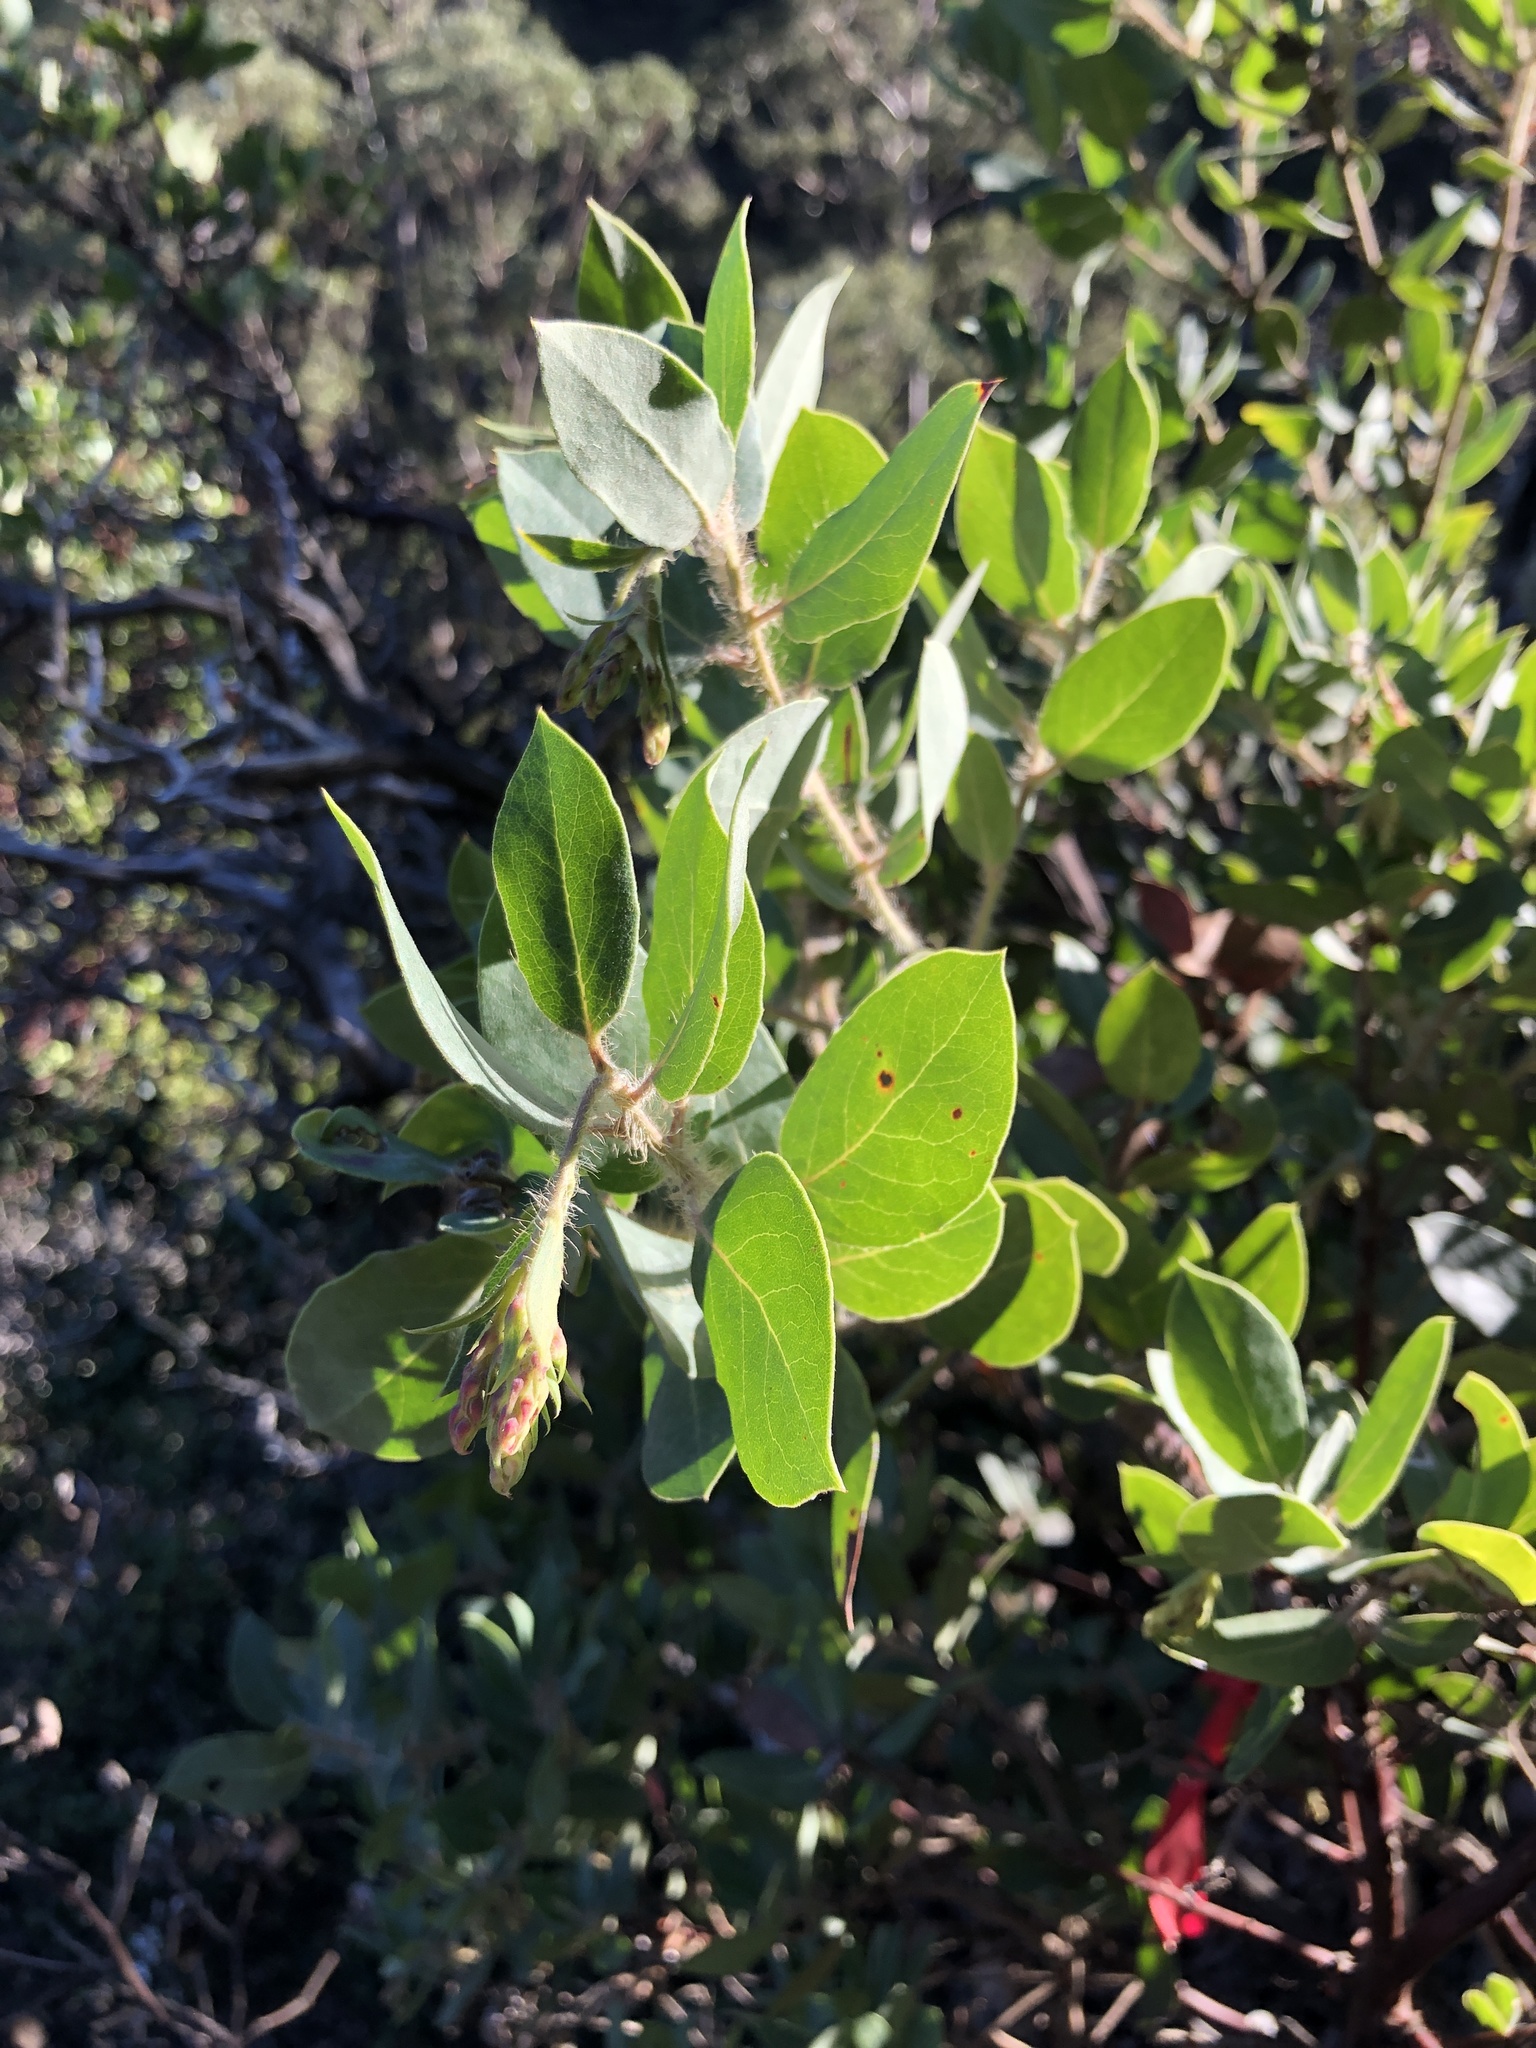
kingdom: Plantae
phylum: Tracheophyta
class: Magnoliopsida
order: Ericales
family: Ericaceae
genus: Arctostaphylos
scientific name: Arctostaphylos crustacea
